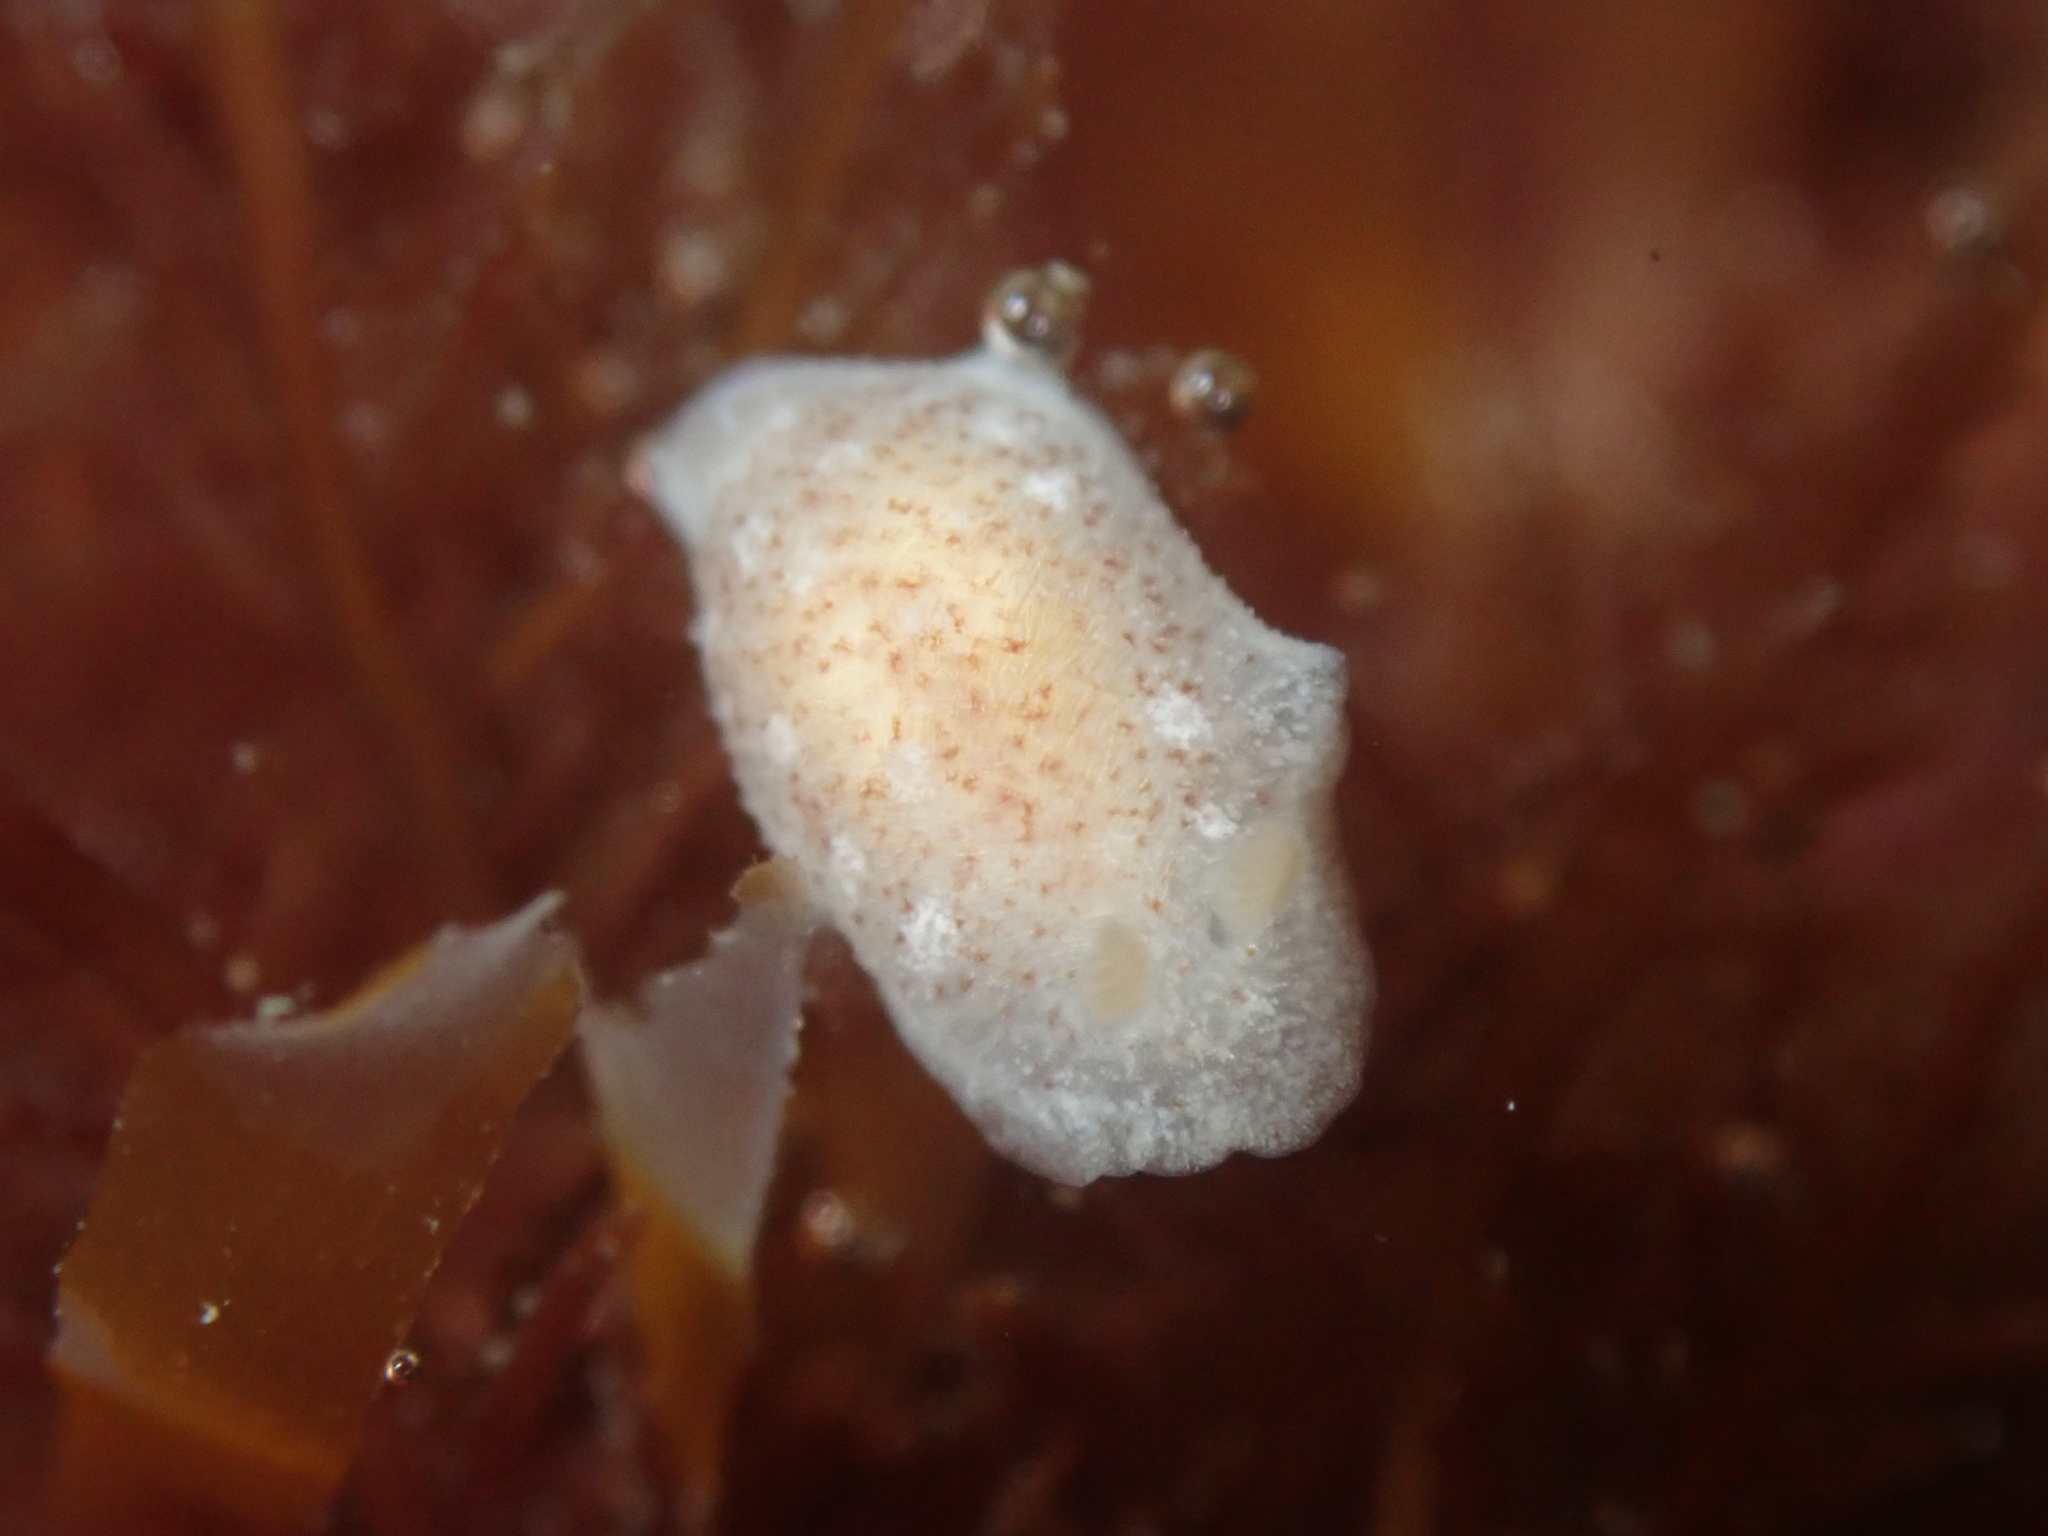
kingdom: Animalia
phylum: Mollusca
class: Gastropoda
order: Nudibranchia
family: Dendrodorididae
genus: Doriopsilla
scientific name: Doriopsilla rowena
